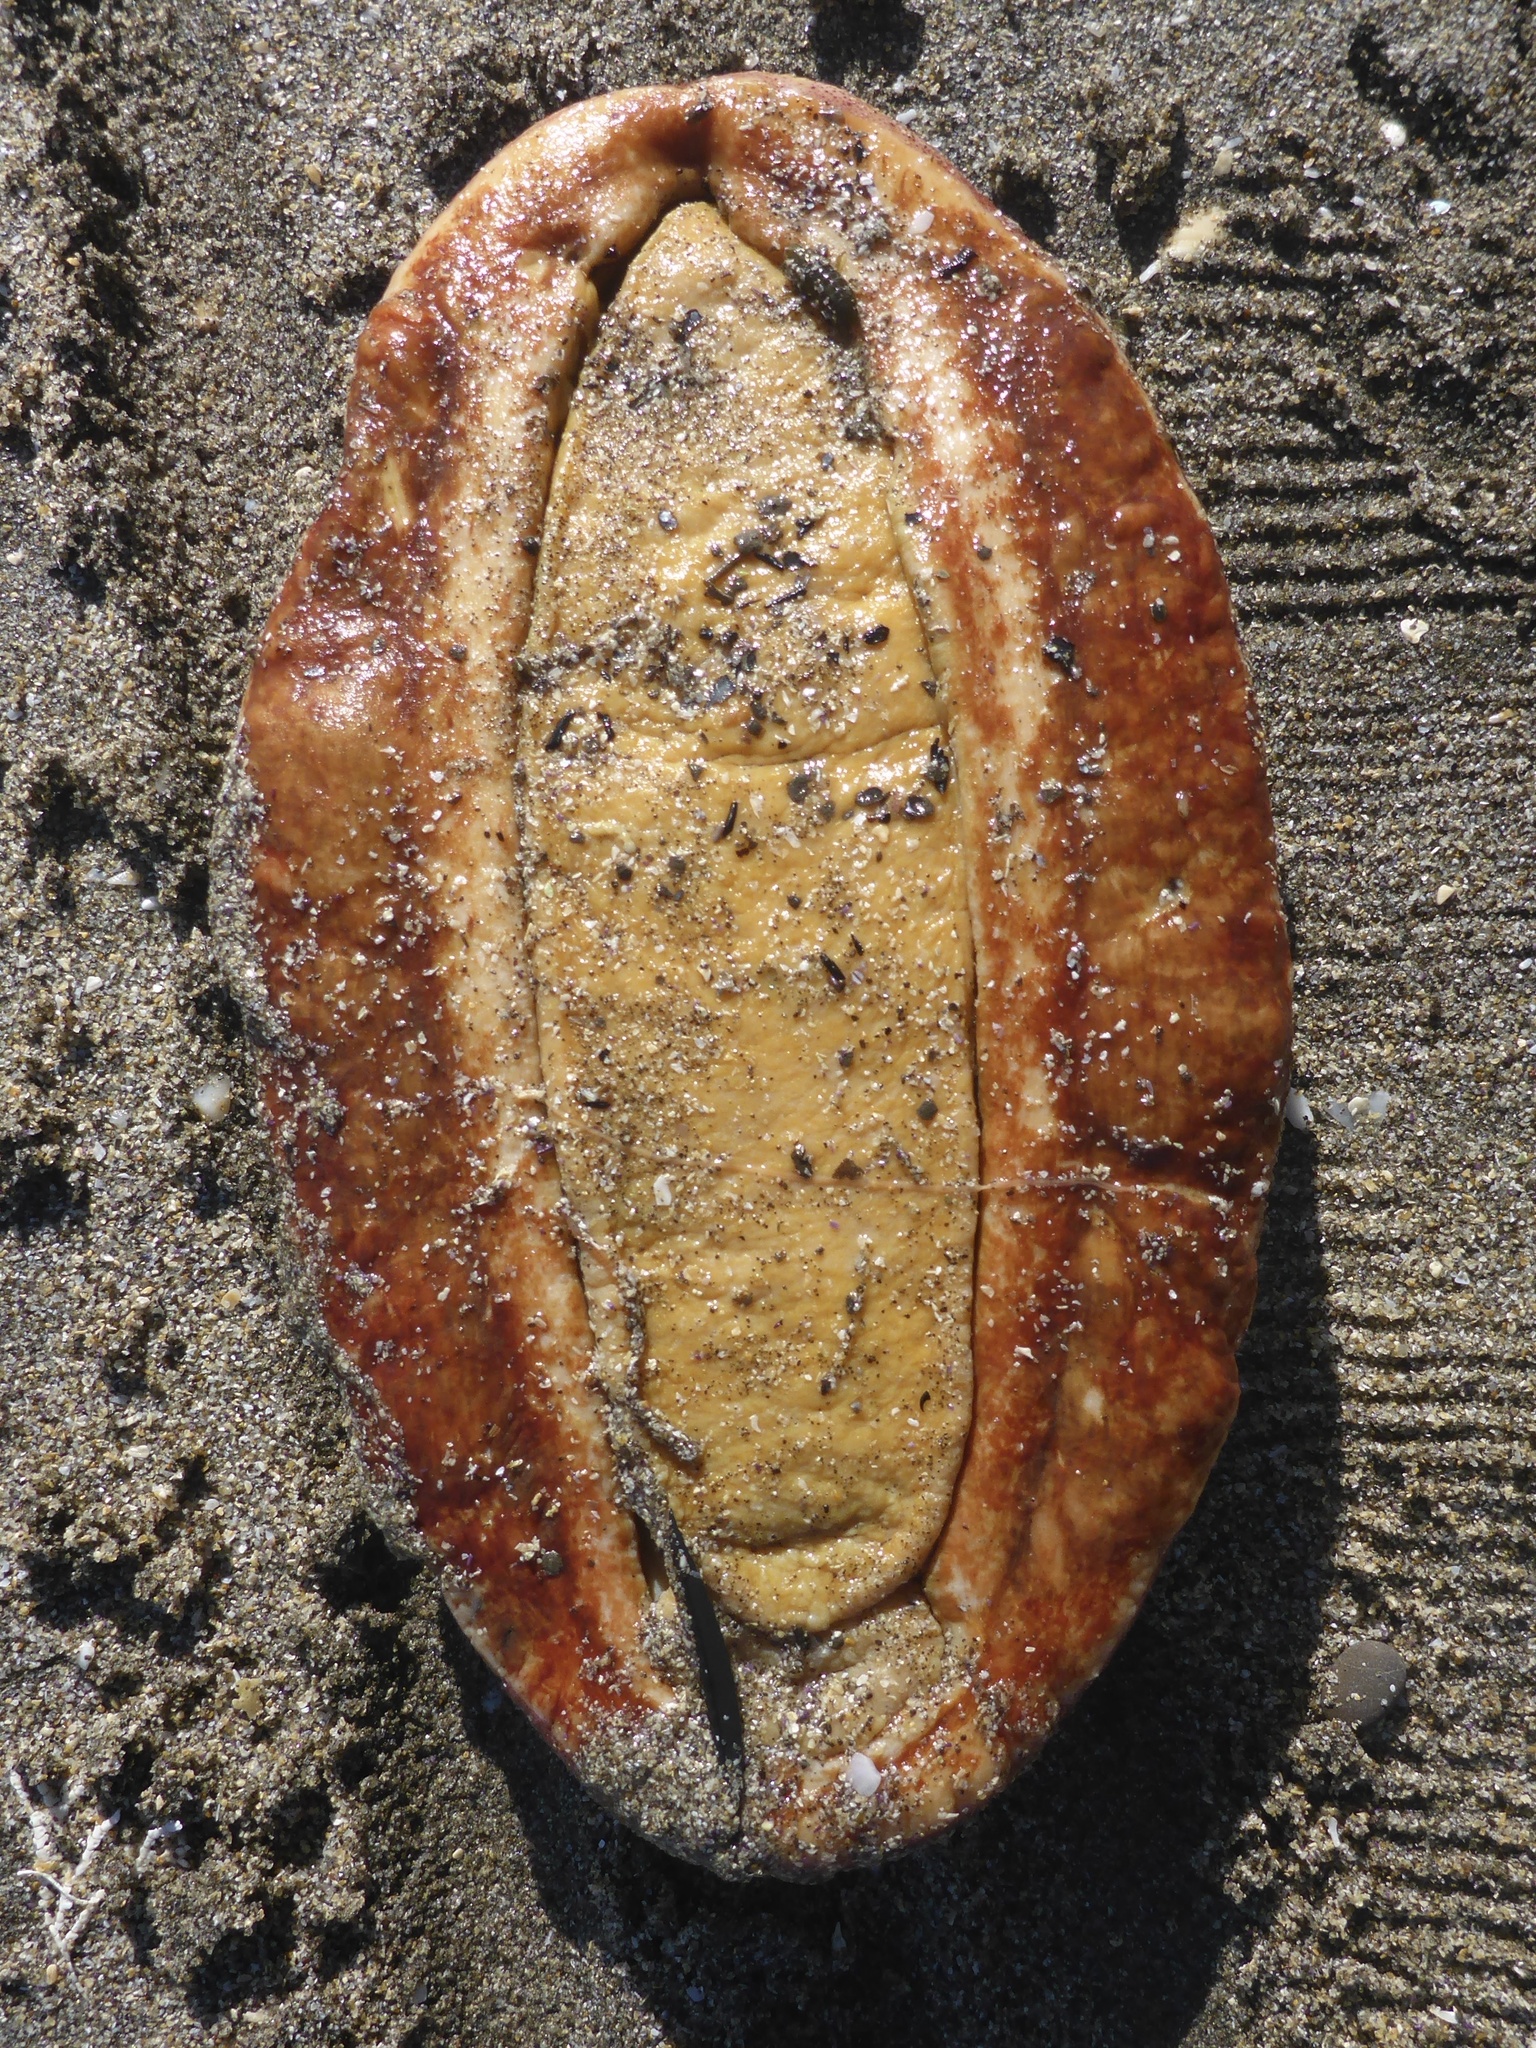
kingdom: Animalia
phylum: Mollusca
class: Polyplacophora
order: Chitonida
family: Acanthochitonidae
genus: Cryptochiton
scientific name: Cryptochiton stelleri
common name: Giant pacific chiton
